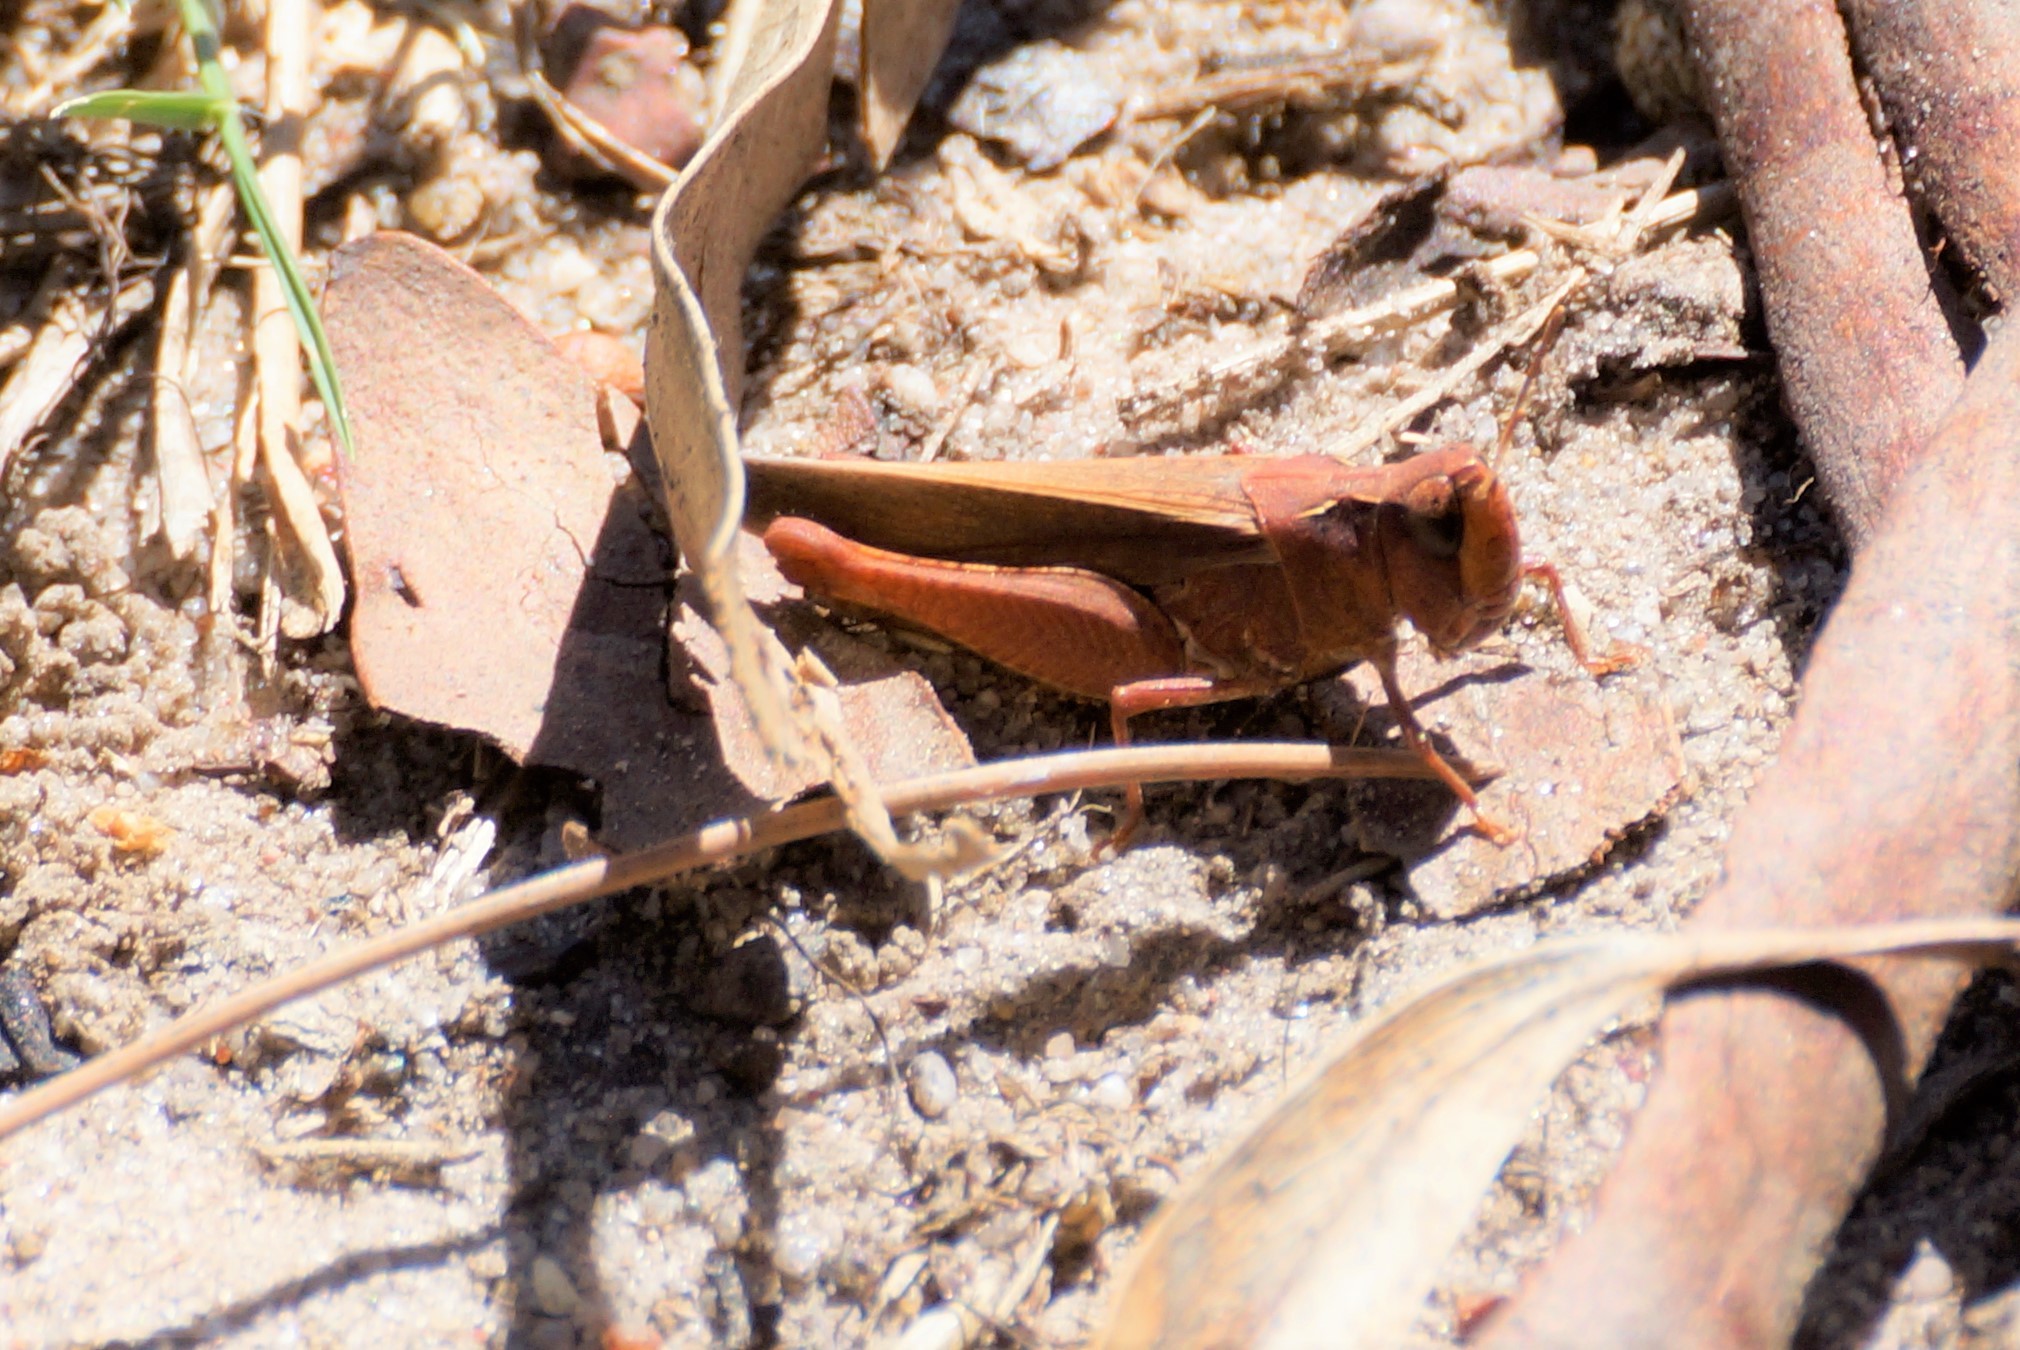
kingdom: Animalia
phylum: Arthropoda
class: Insecta
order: Orthoptera
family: Acrididae
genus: Cryptobothrus
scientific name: Cryptobothrus chrysophorus
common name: Golden bandwing
